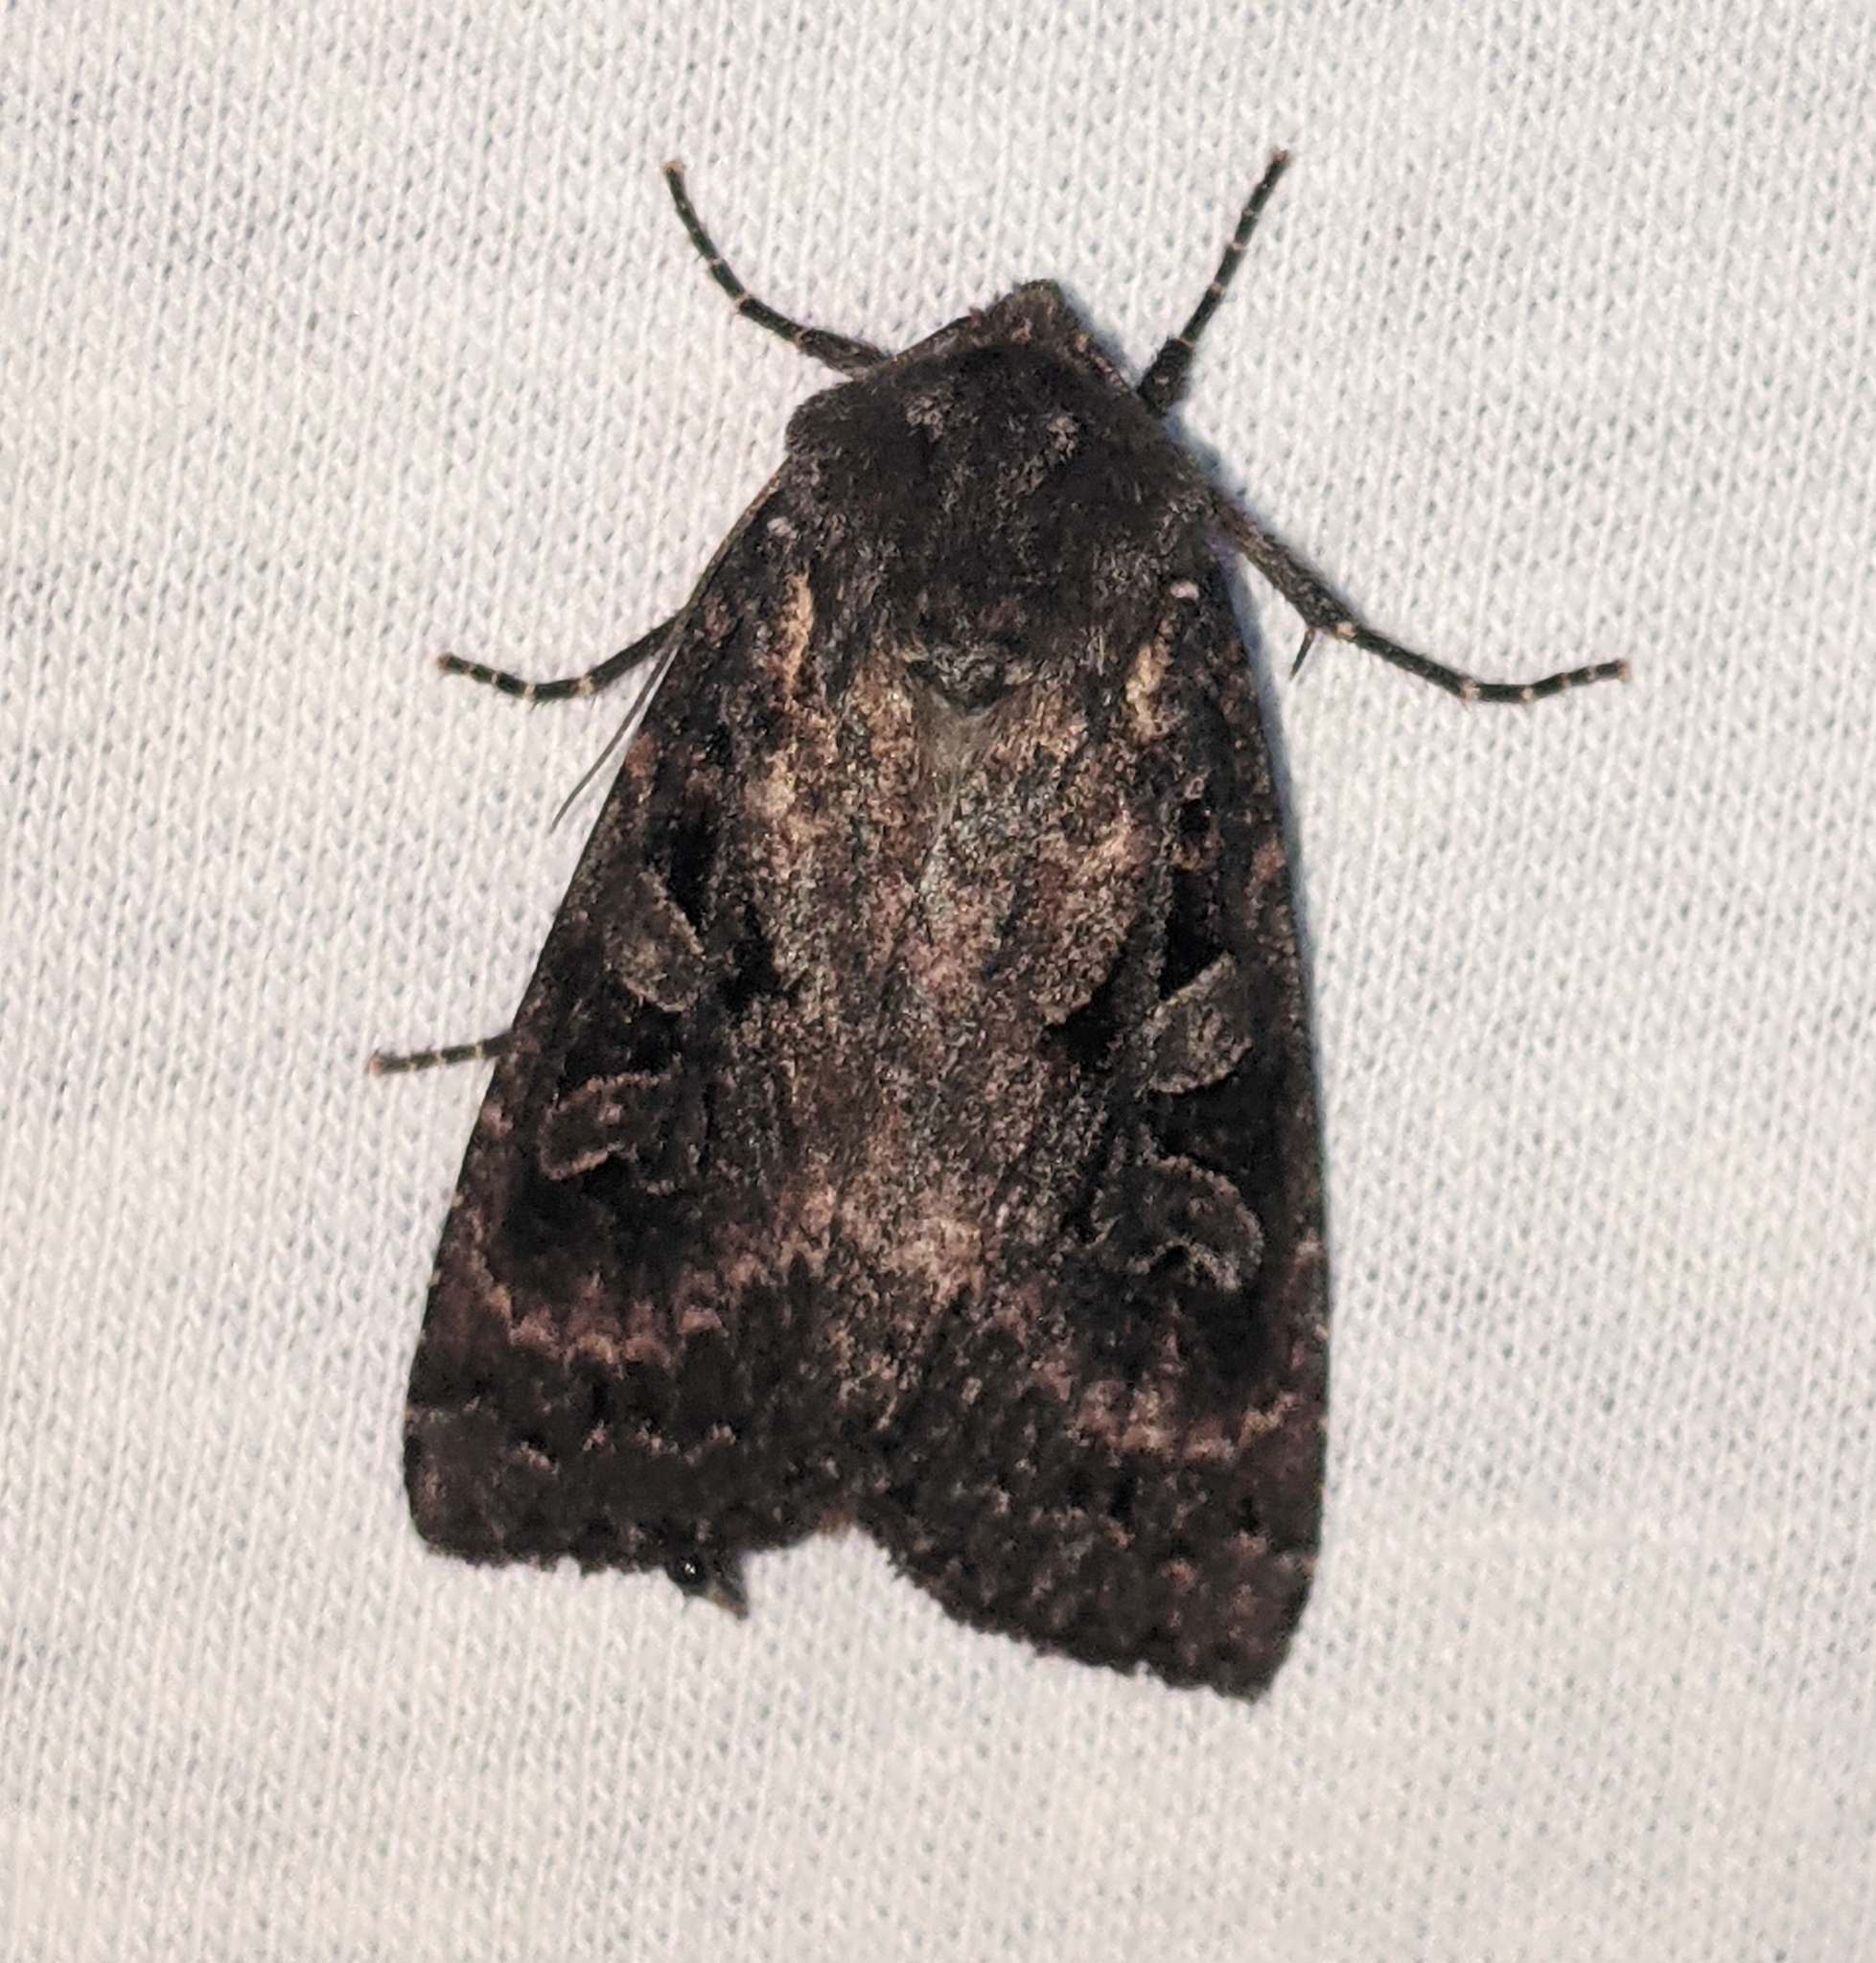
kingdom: Animalia
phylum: Arthropoda
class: Insecta
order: Lepidoptera
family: Noctuidae
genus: Eurois
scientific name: Eurois astricta
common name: Great brown dart
